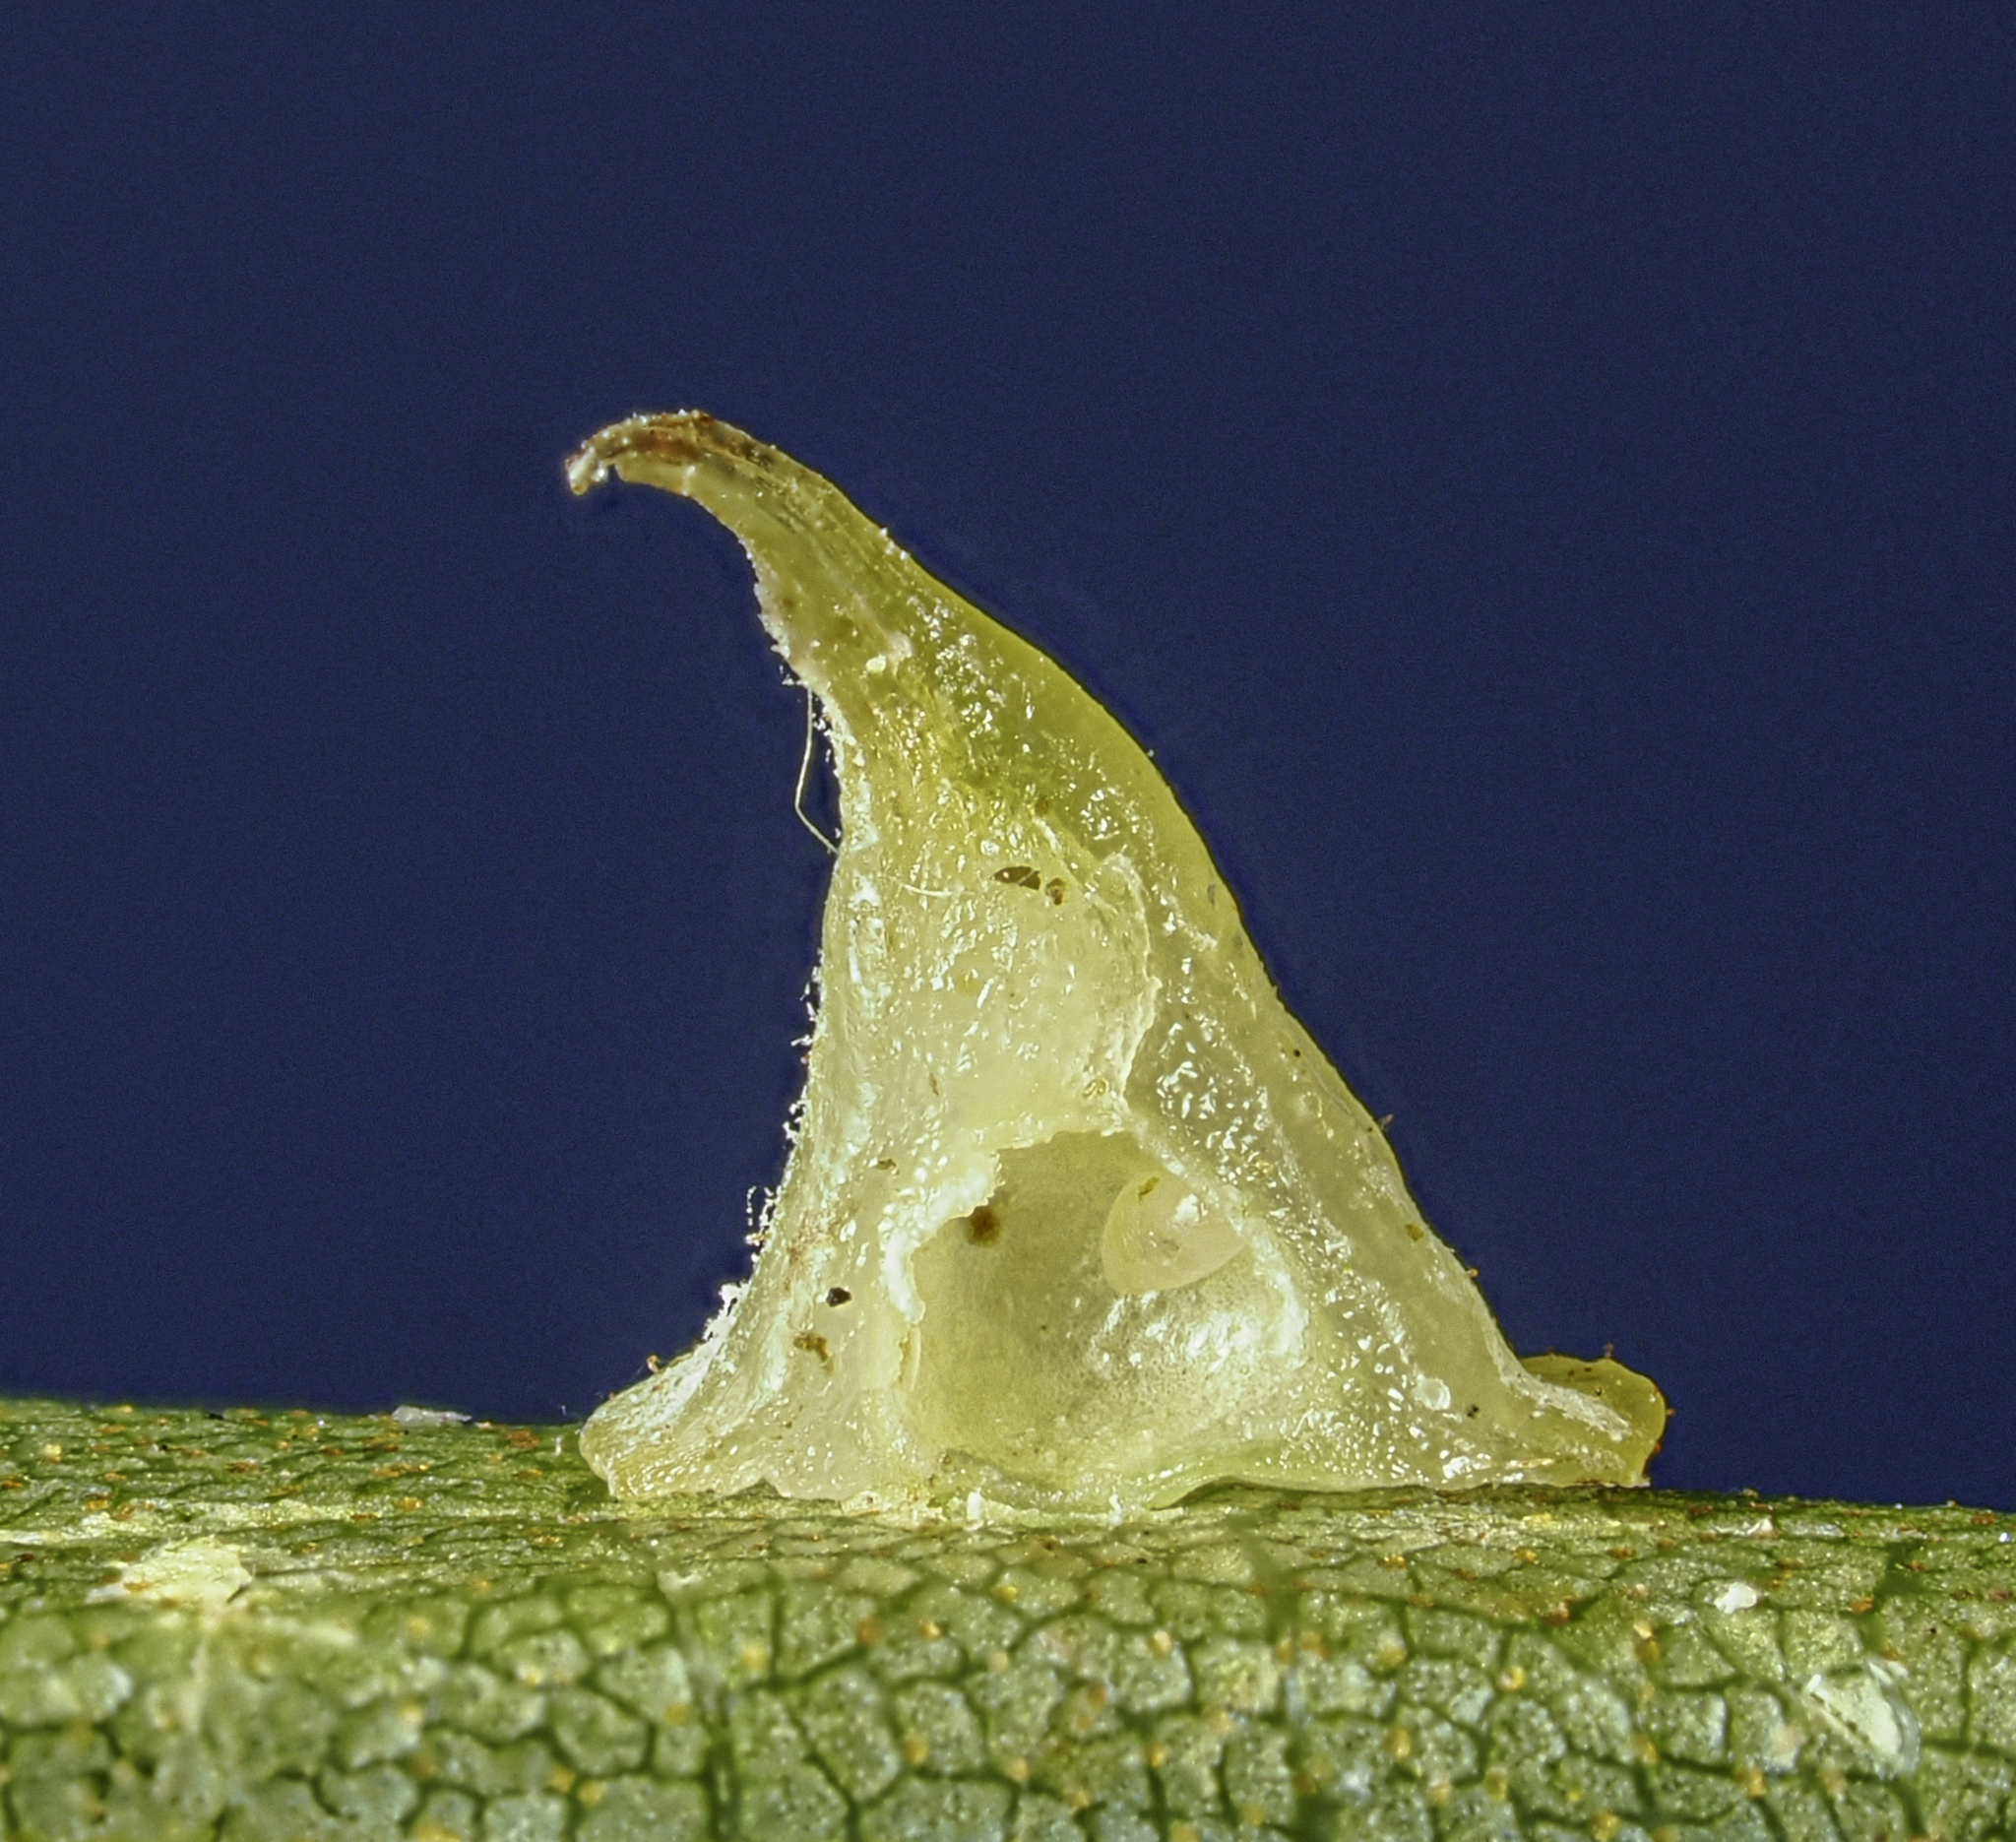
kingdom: Animalia
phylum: Arthropoda
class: Insecta
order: Diptera
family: Cecidomyiidae
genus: Caryomyia
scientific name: Caryomyia sanguinolenta
